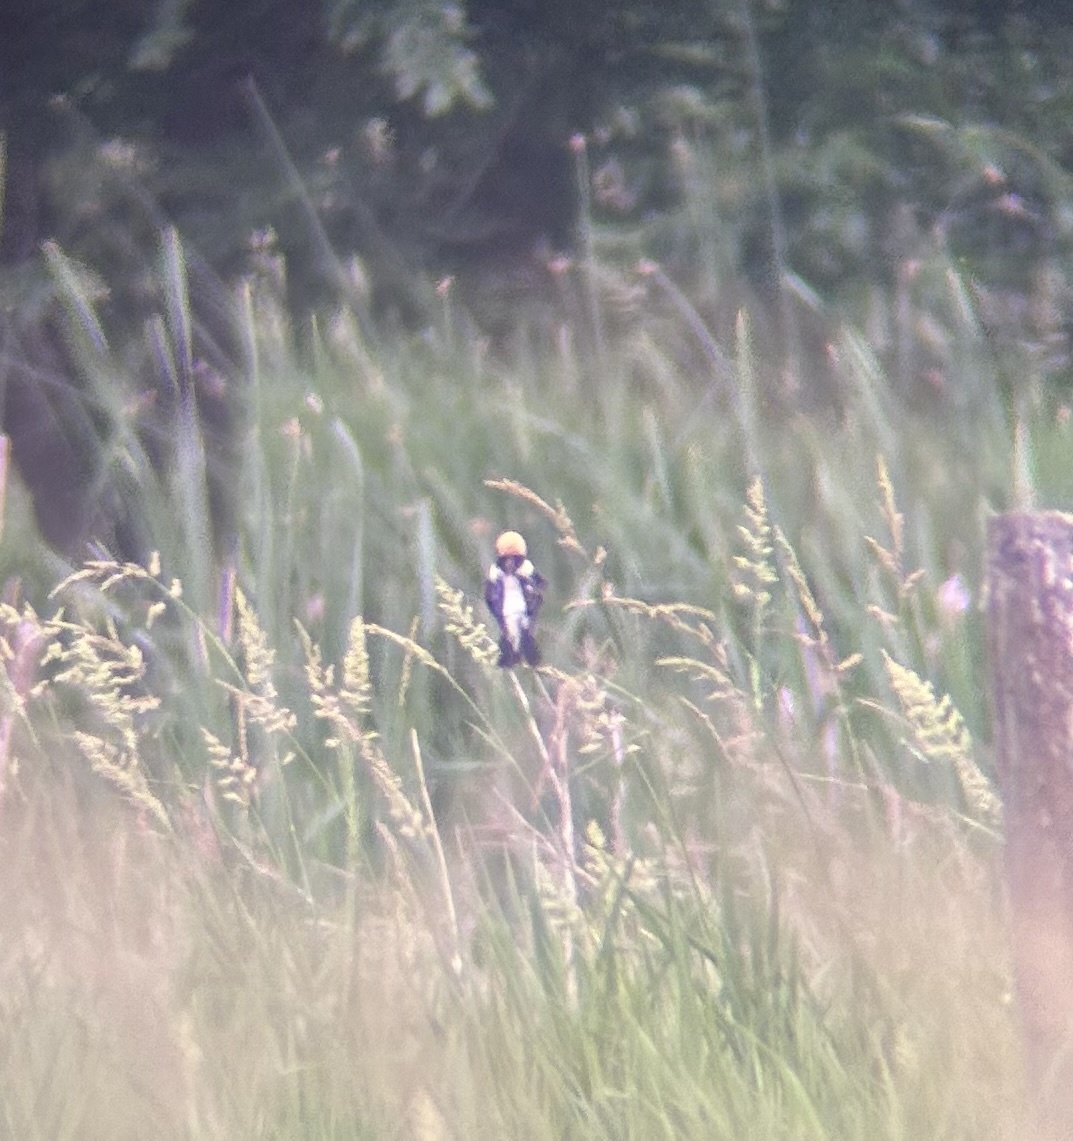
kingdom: Animalia
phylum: Chordata
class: Aves
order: Passeriformes
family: Icteridae
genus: Dolichonyx
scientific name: Dolichonyx oryzivorus
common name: Bobolink
